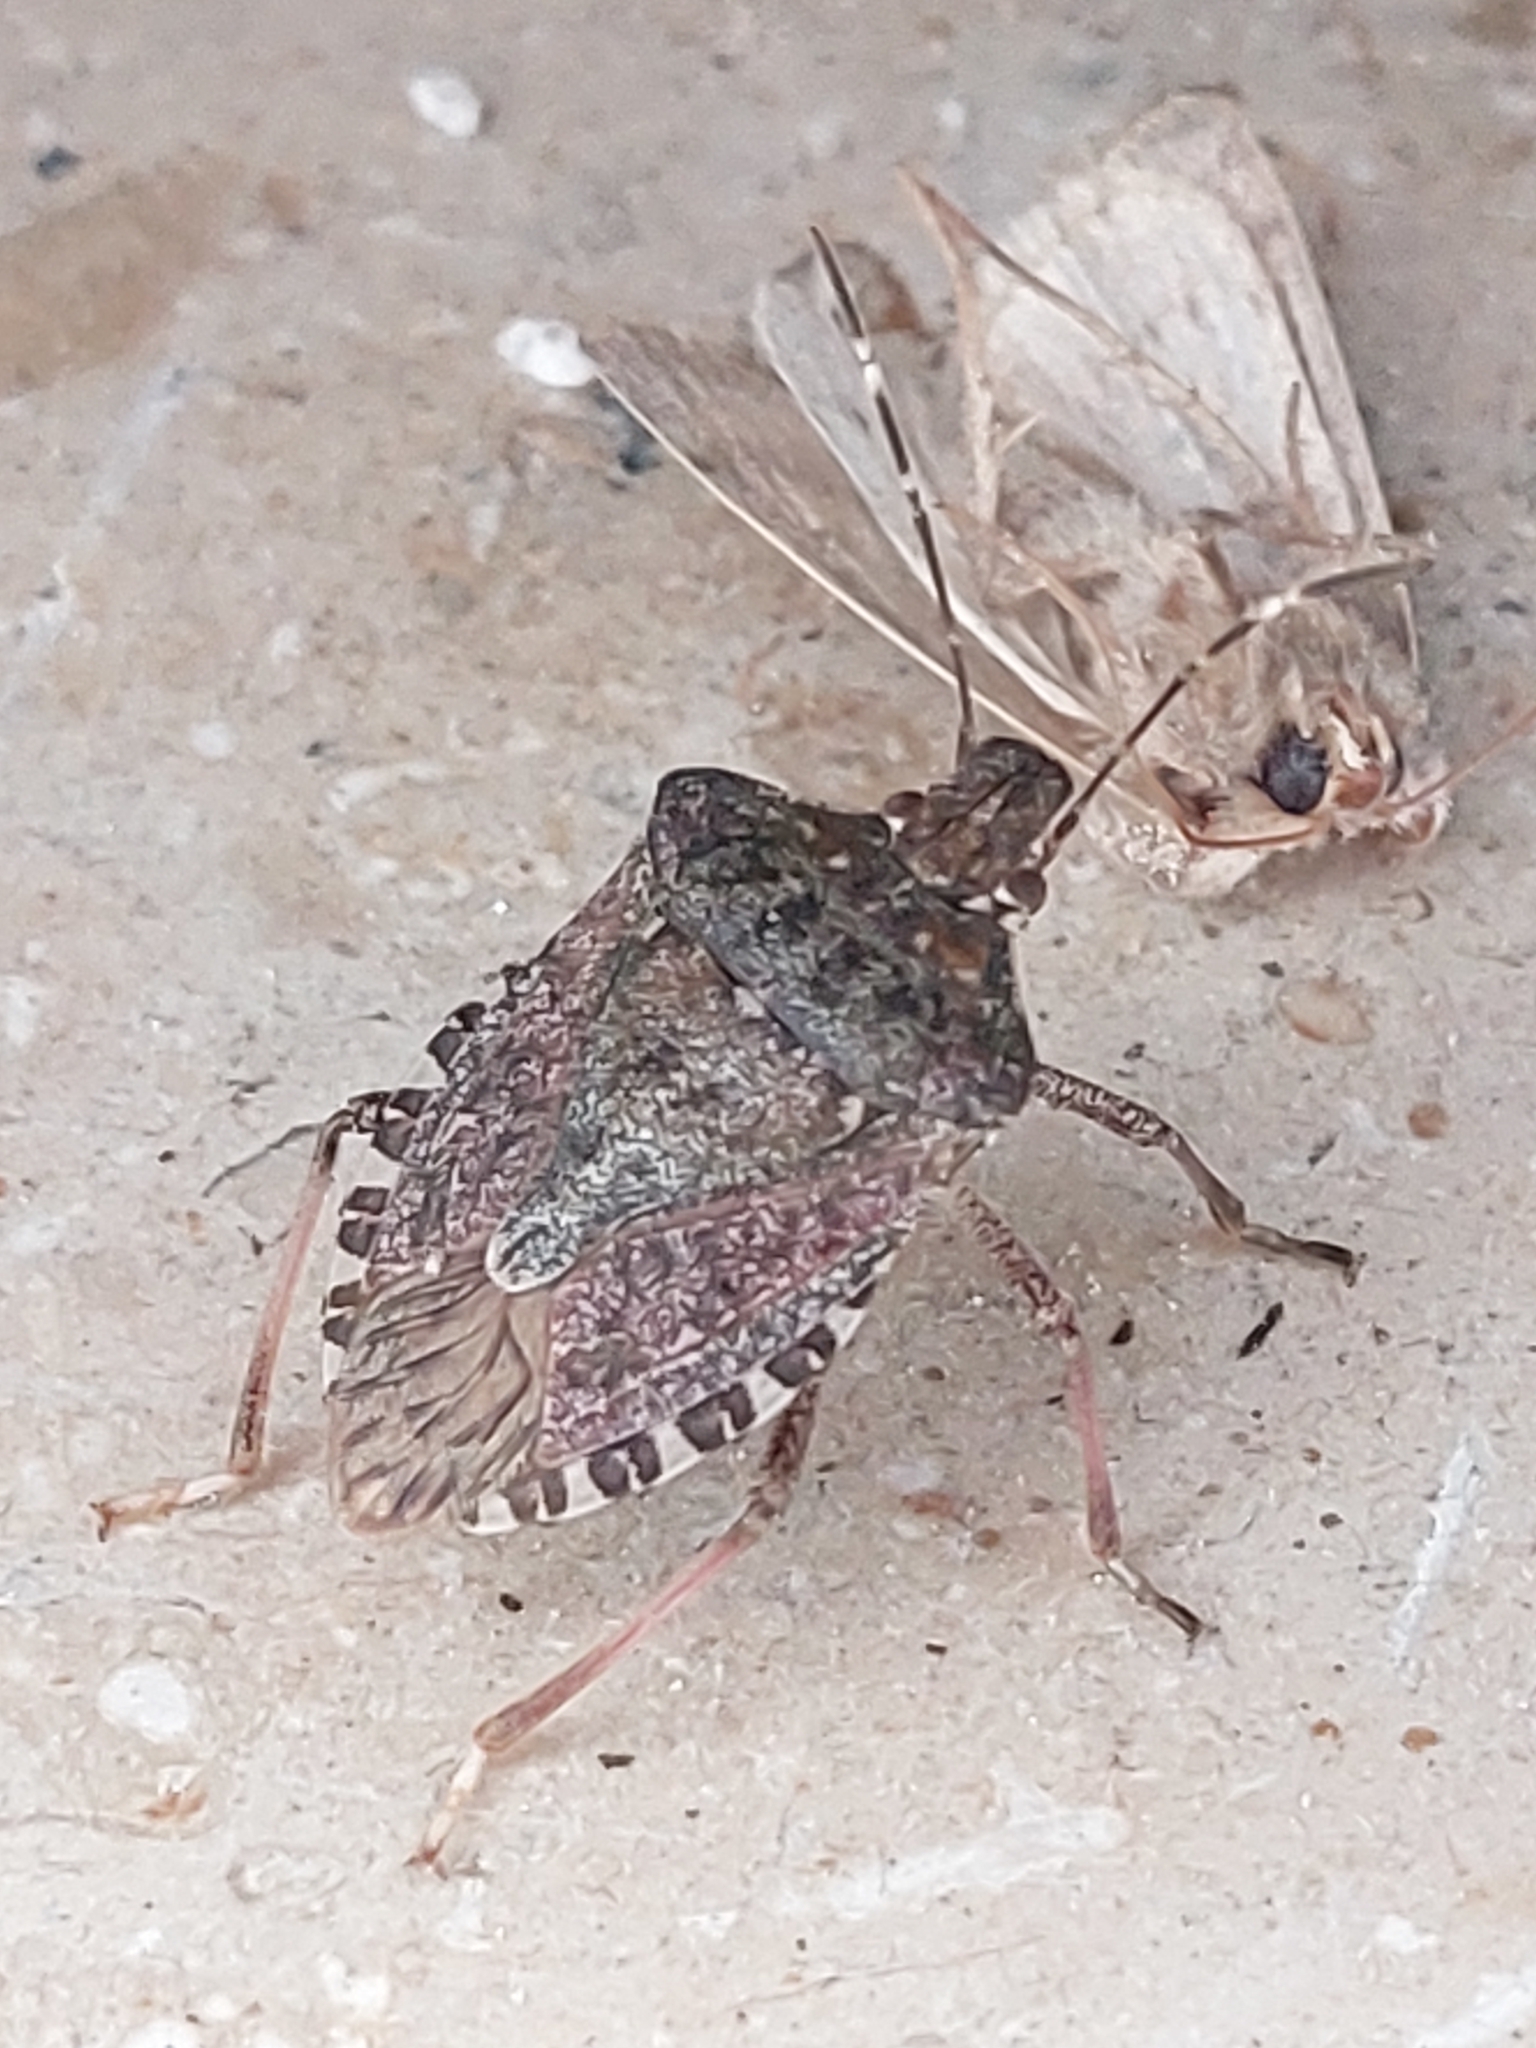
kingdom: Animalia
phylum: Arthropoda
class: Insecta
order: Hemiptera
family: Pentatomidae
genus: Halyomorpha
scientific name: Halyomorpha halys
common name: Brown marmorated stink bug
